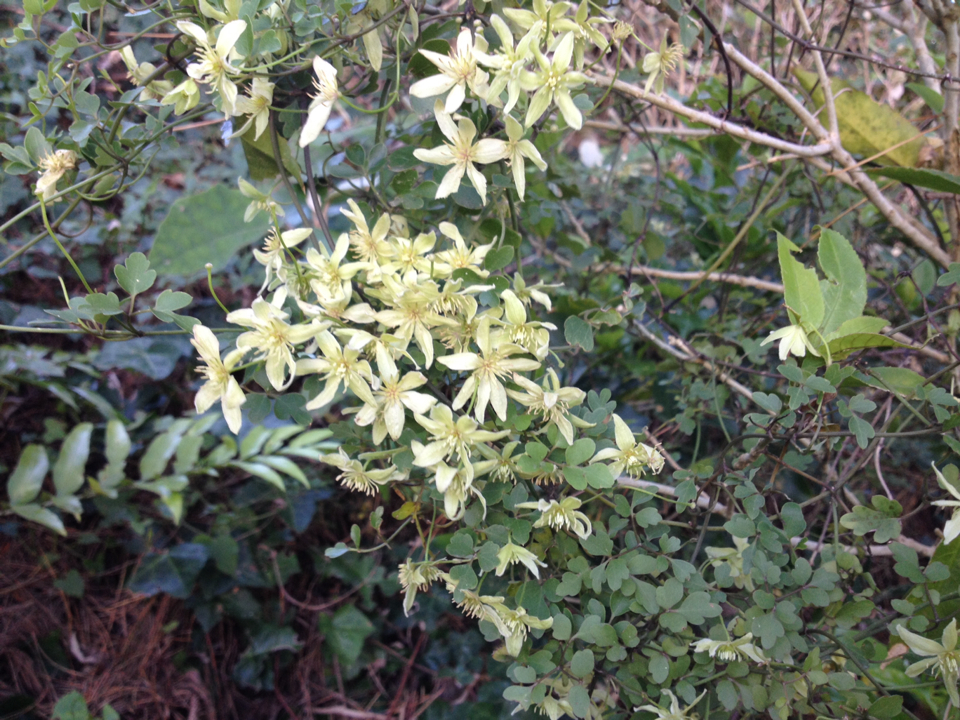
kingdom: Plantae
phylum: Tracheophyta
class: Magnoliopsida
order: Ranunculales
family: Ranunculaceae
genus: Clematis
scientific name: Clematis forsteri
